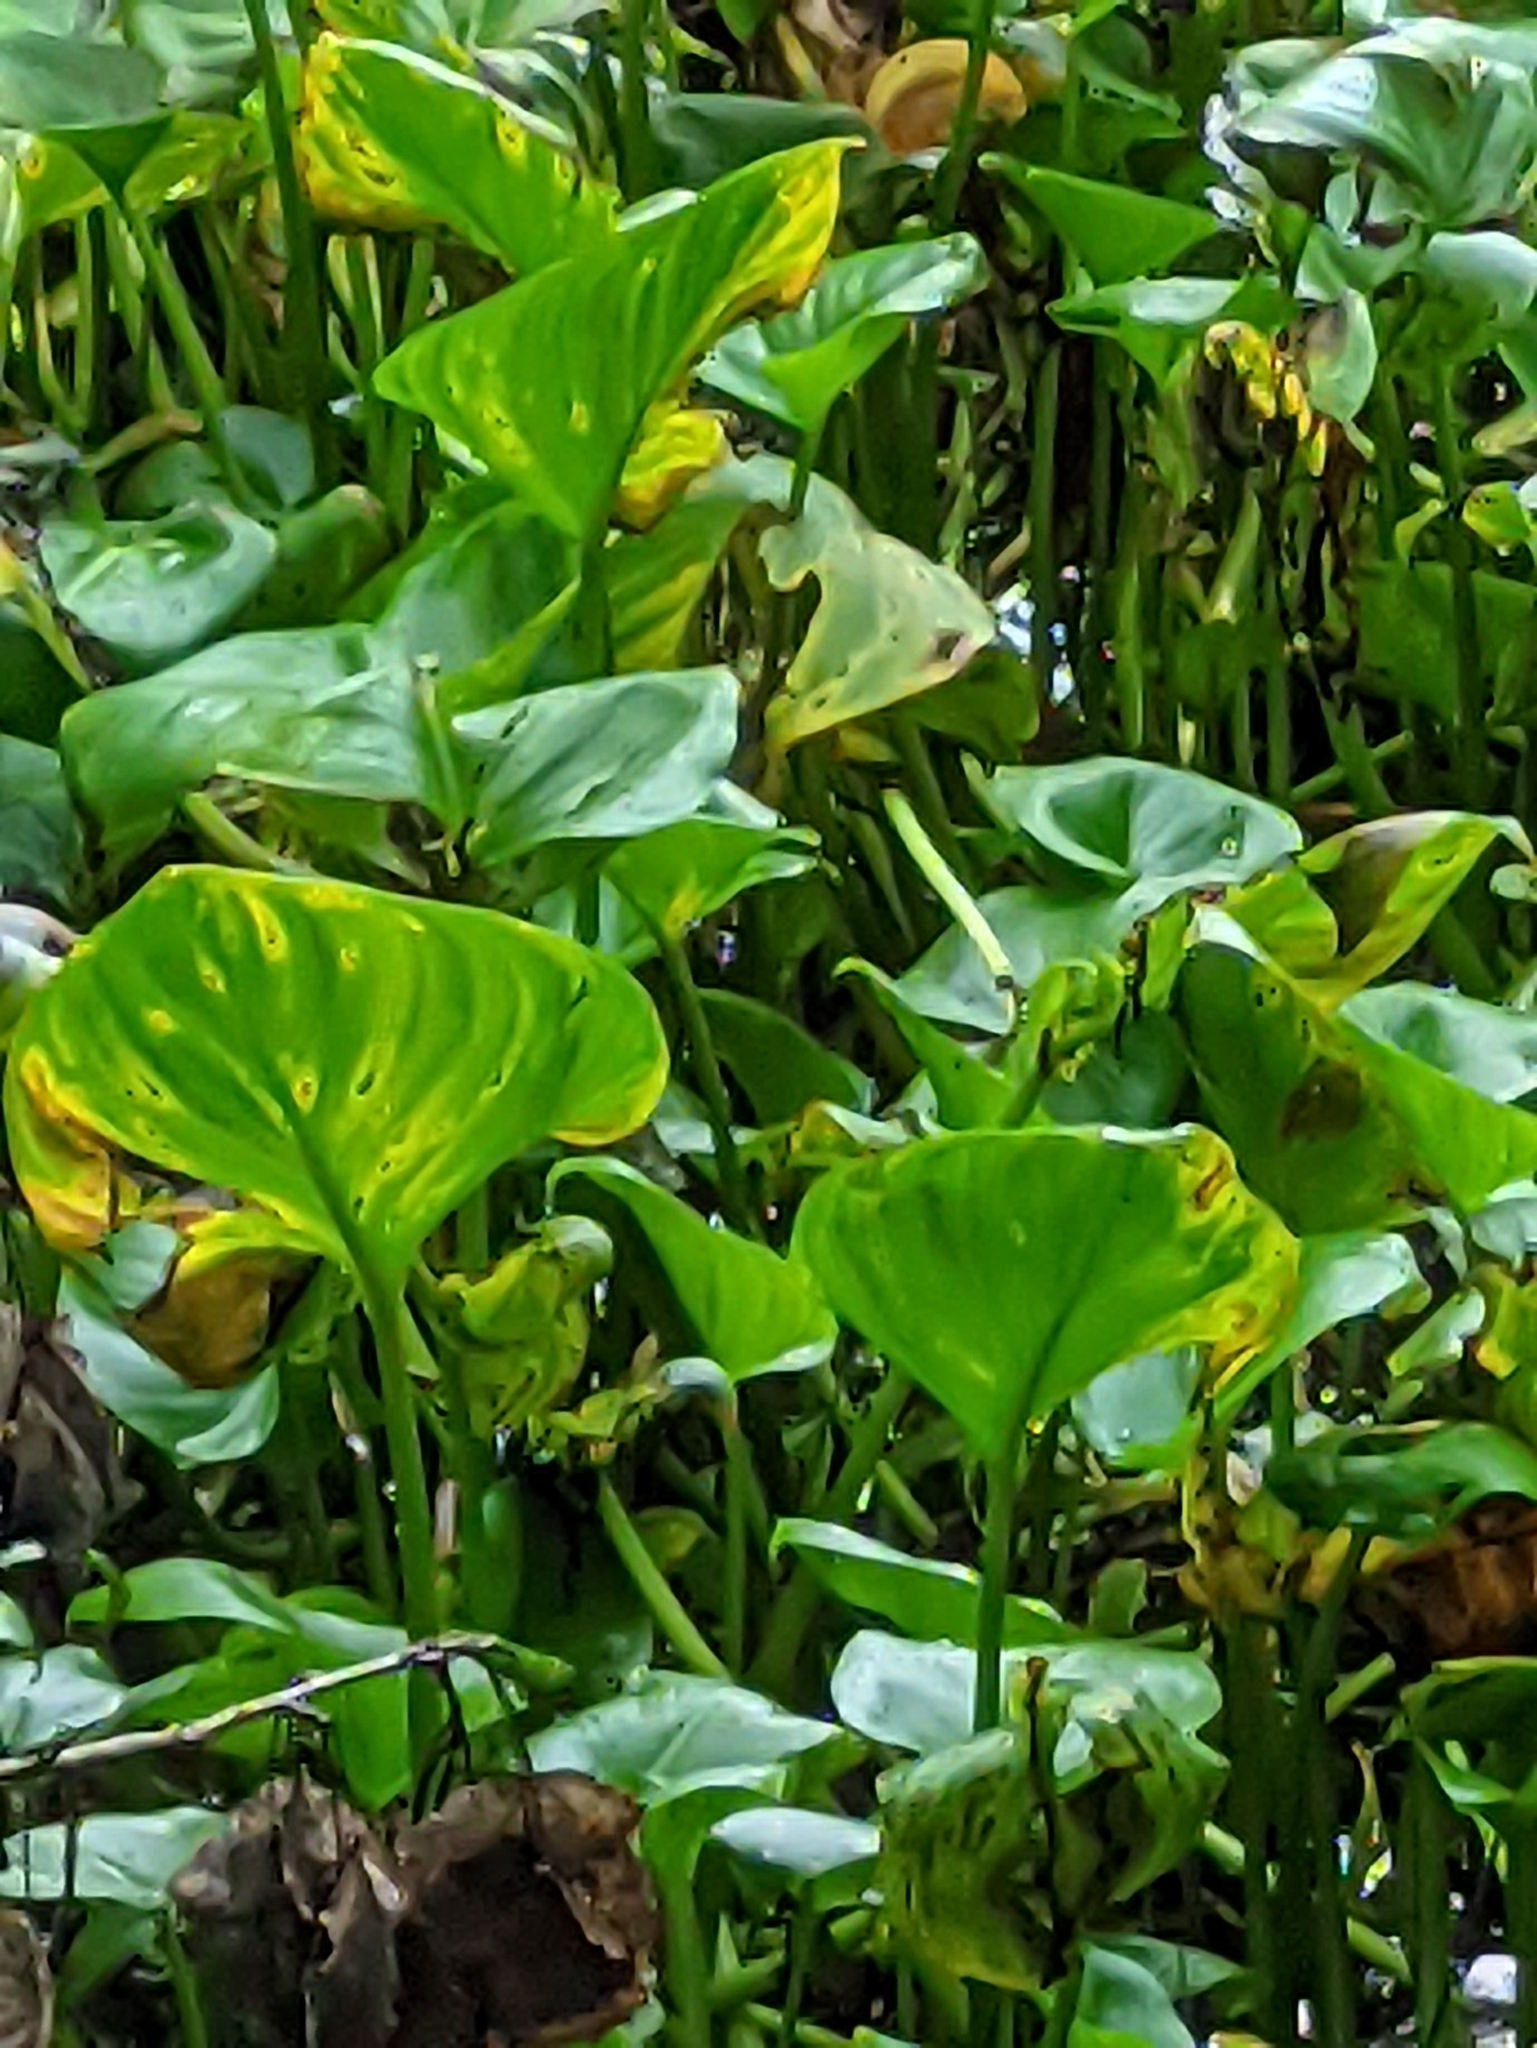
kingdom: Plantae
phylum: Tracheophyta
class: Liliopsida
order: Alismatales
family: Araceae
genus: Calla
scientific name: Calla palustris
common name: Bog arum
